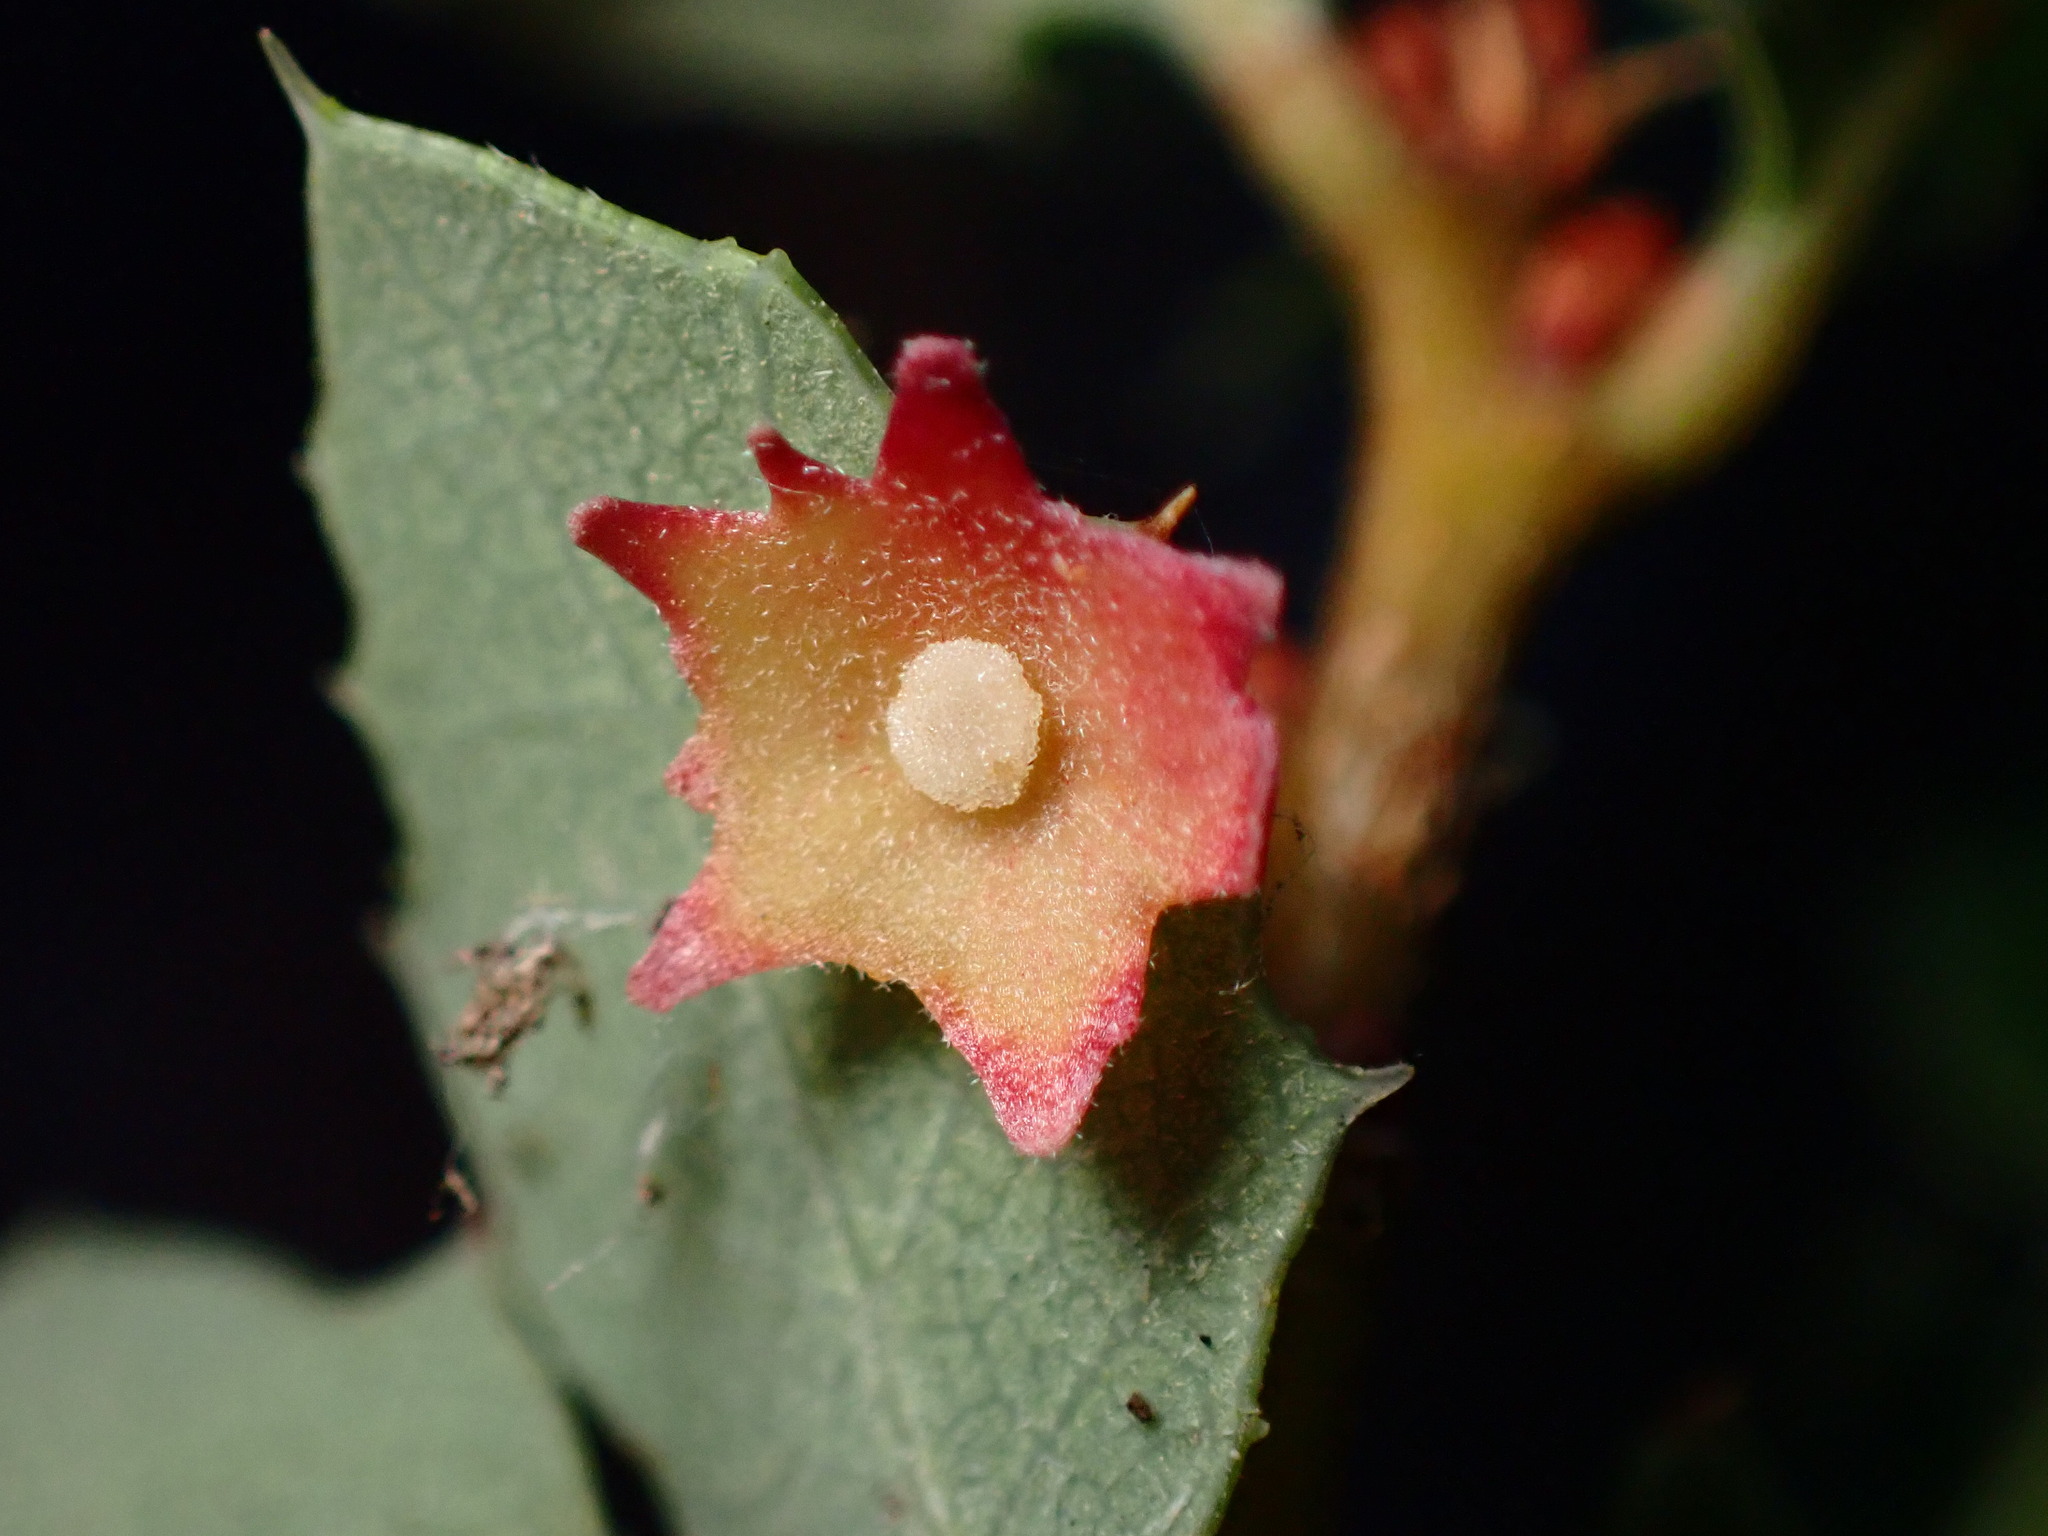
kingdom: Animalia
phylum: Arthropoda
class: Insecta
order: Hymenoptera
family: Cynipidae
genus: Andricus
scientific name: Andricus
